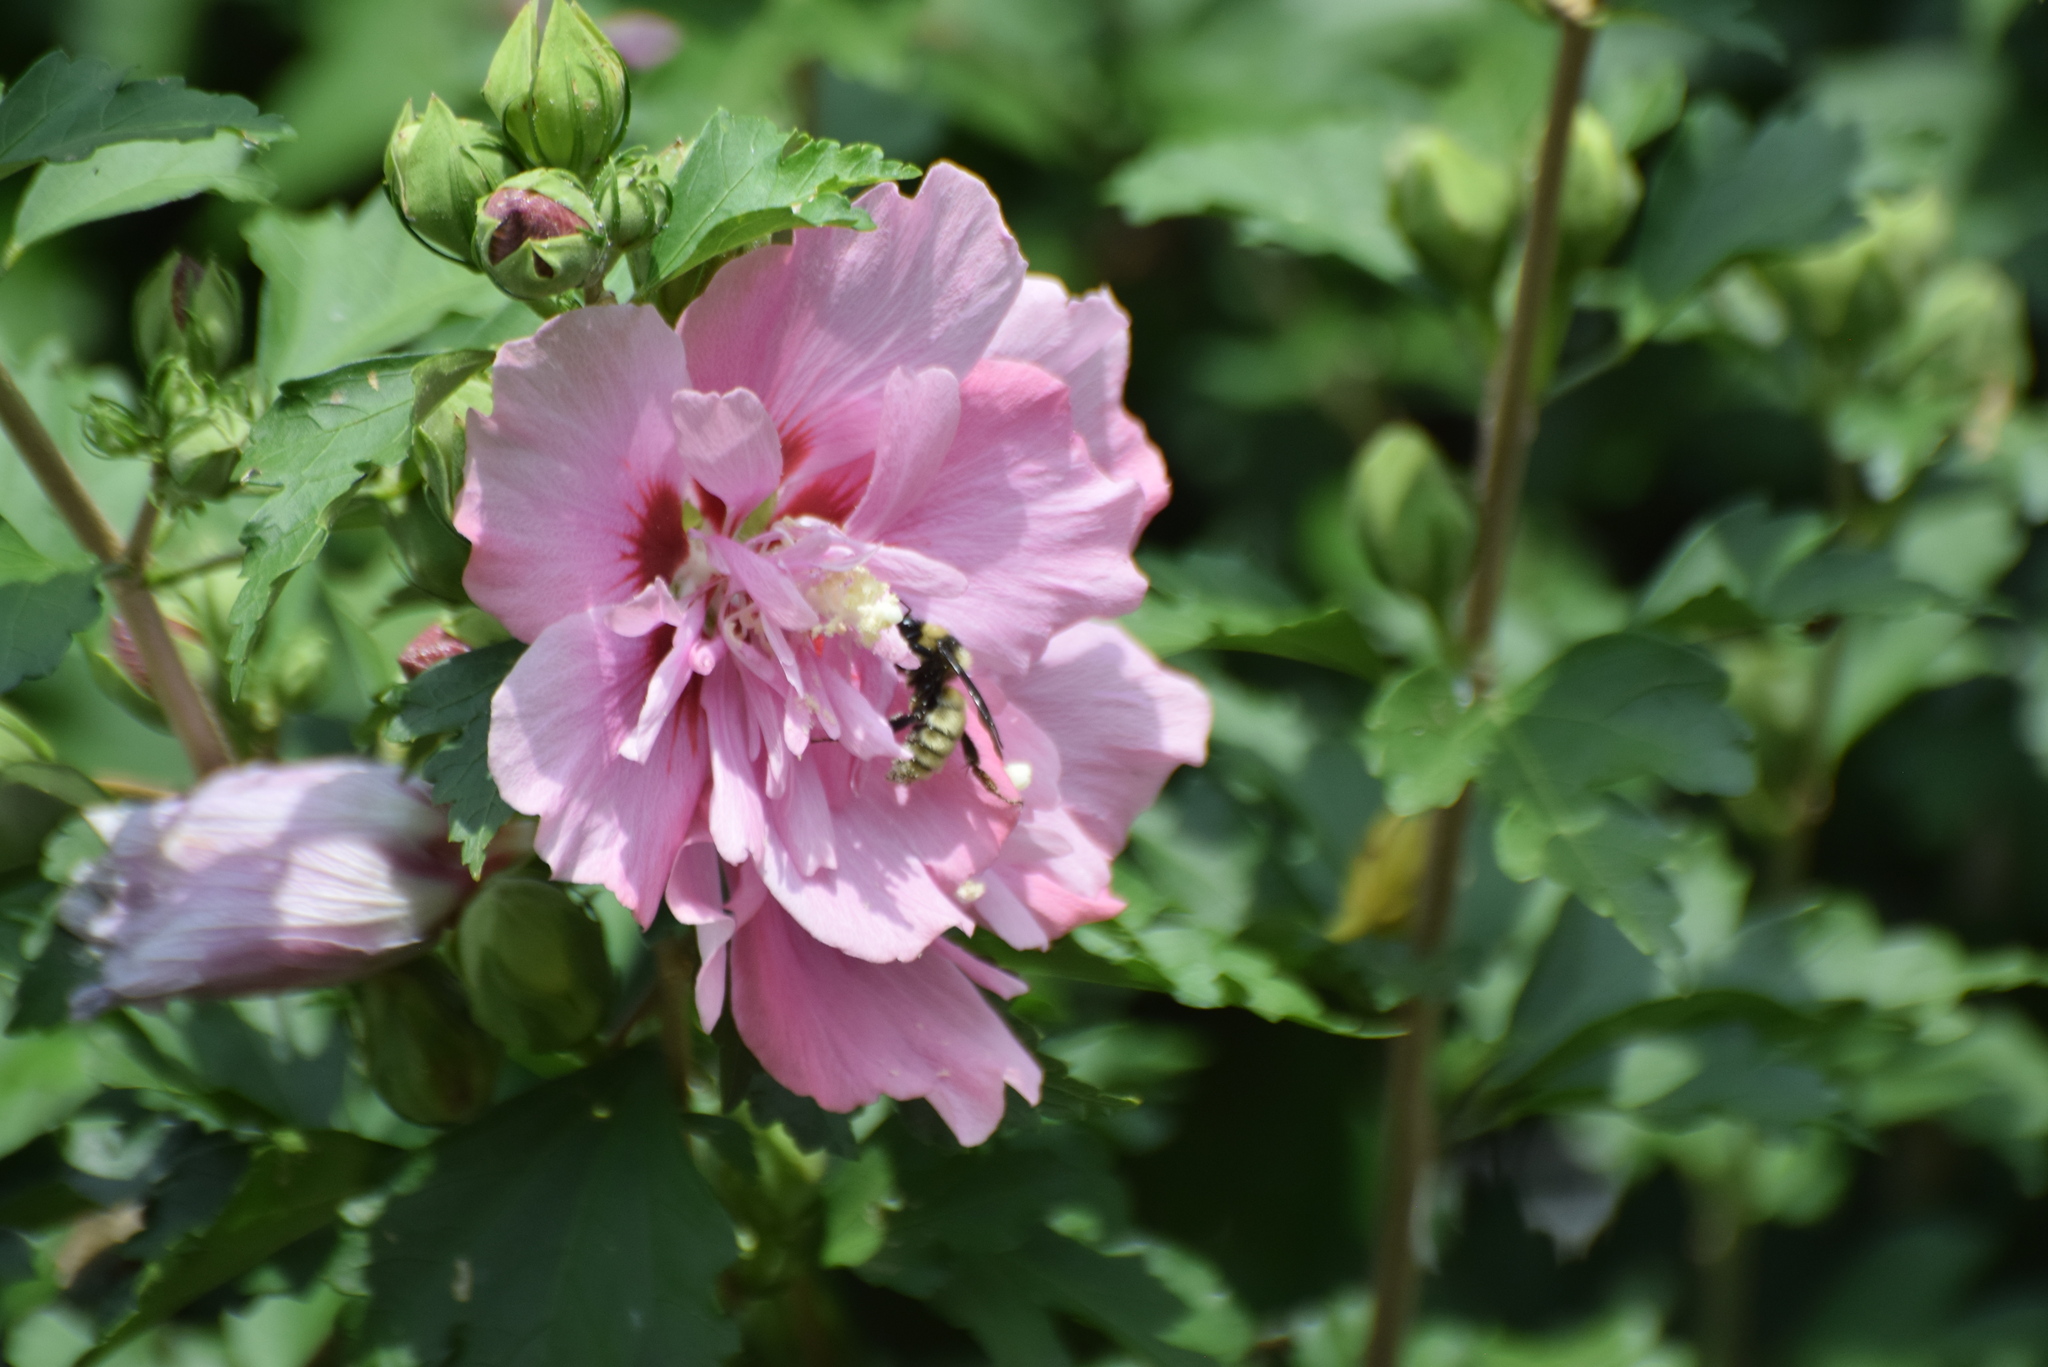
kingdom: Animalia
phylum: Arthropoda
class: Insecta
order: Hymenoptera
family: Apidae
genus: Bombus
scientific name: Bombus pensylvanicus
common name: Bumble bee
